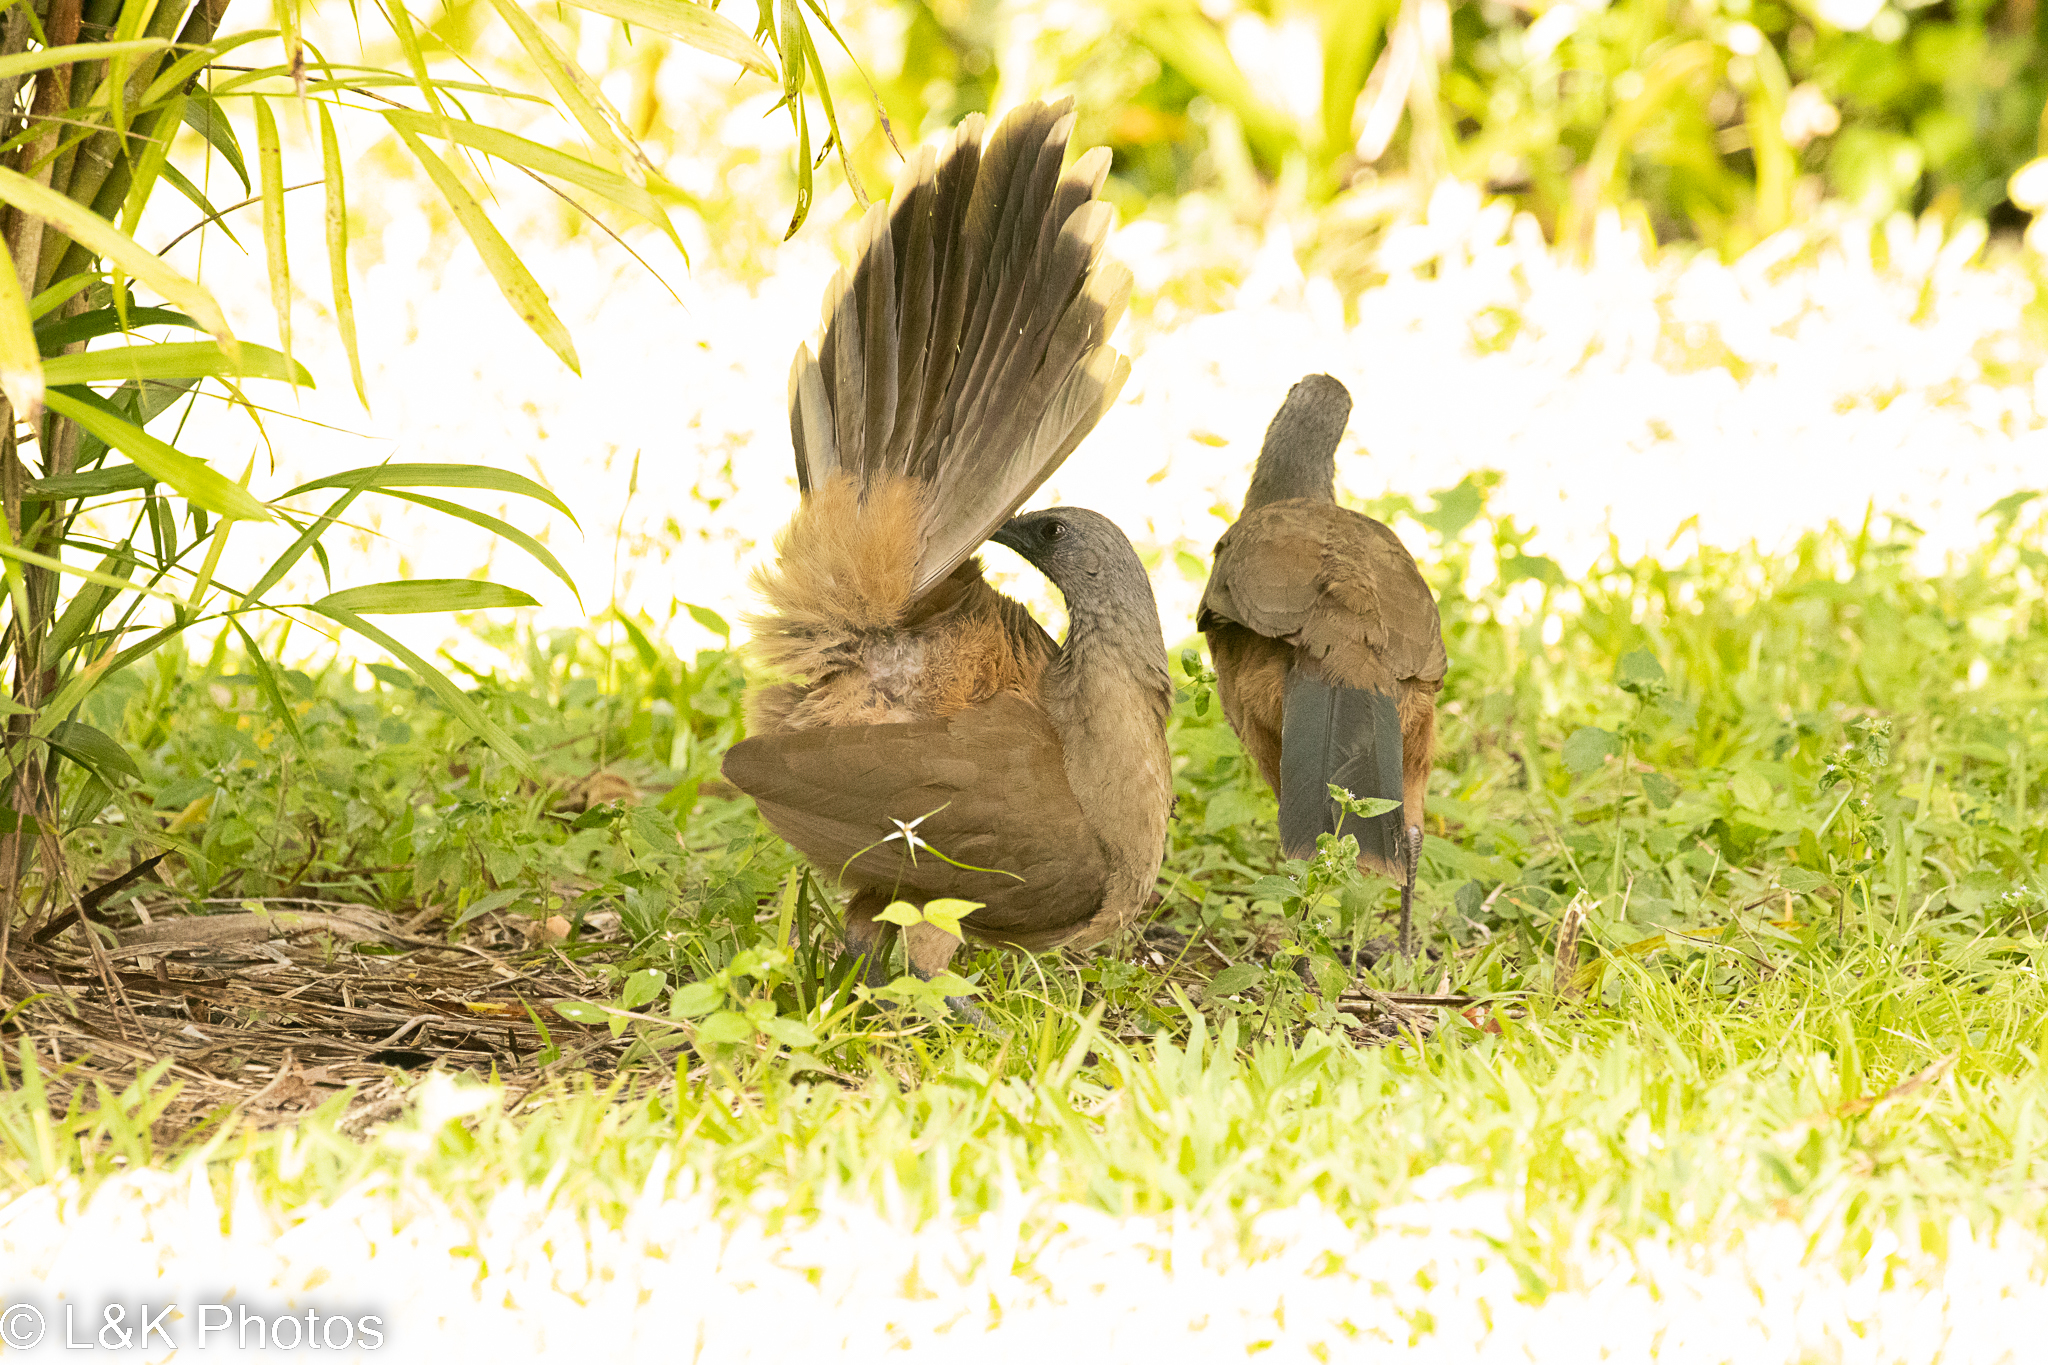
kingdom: Animalia
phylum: Chordata
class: Aves
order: Galliformes
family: Cracidae
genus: Ortalis
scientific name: Ortalis vetula
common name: Plain chachalaca
